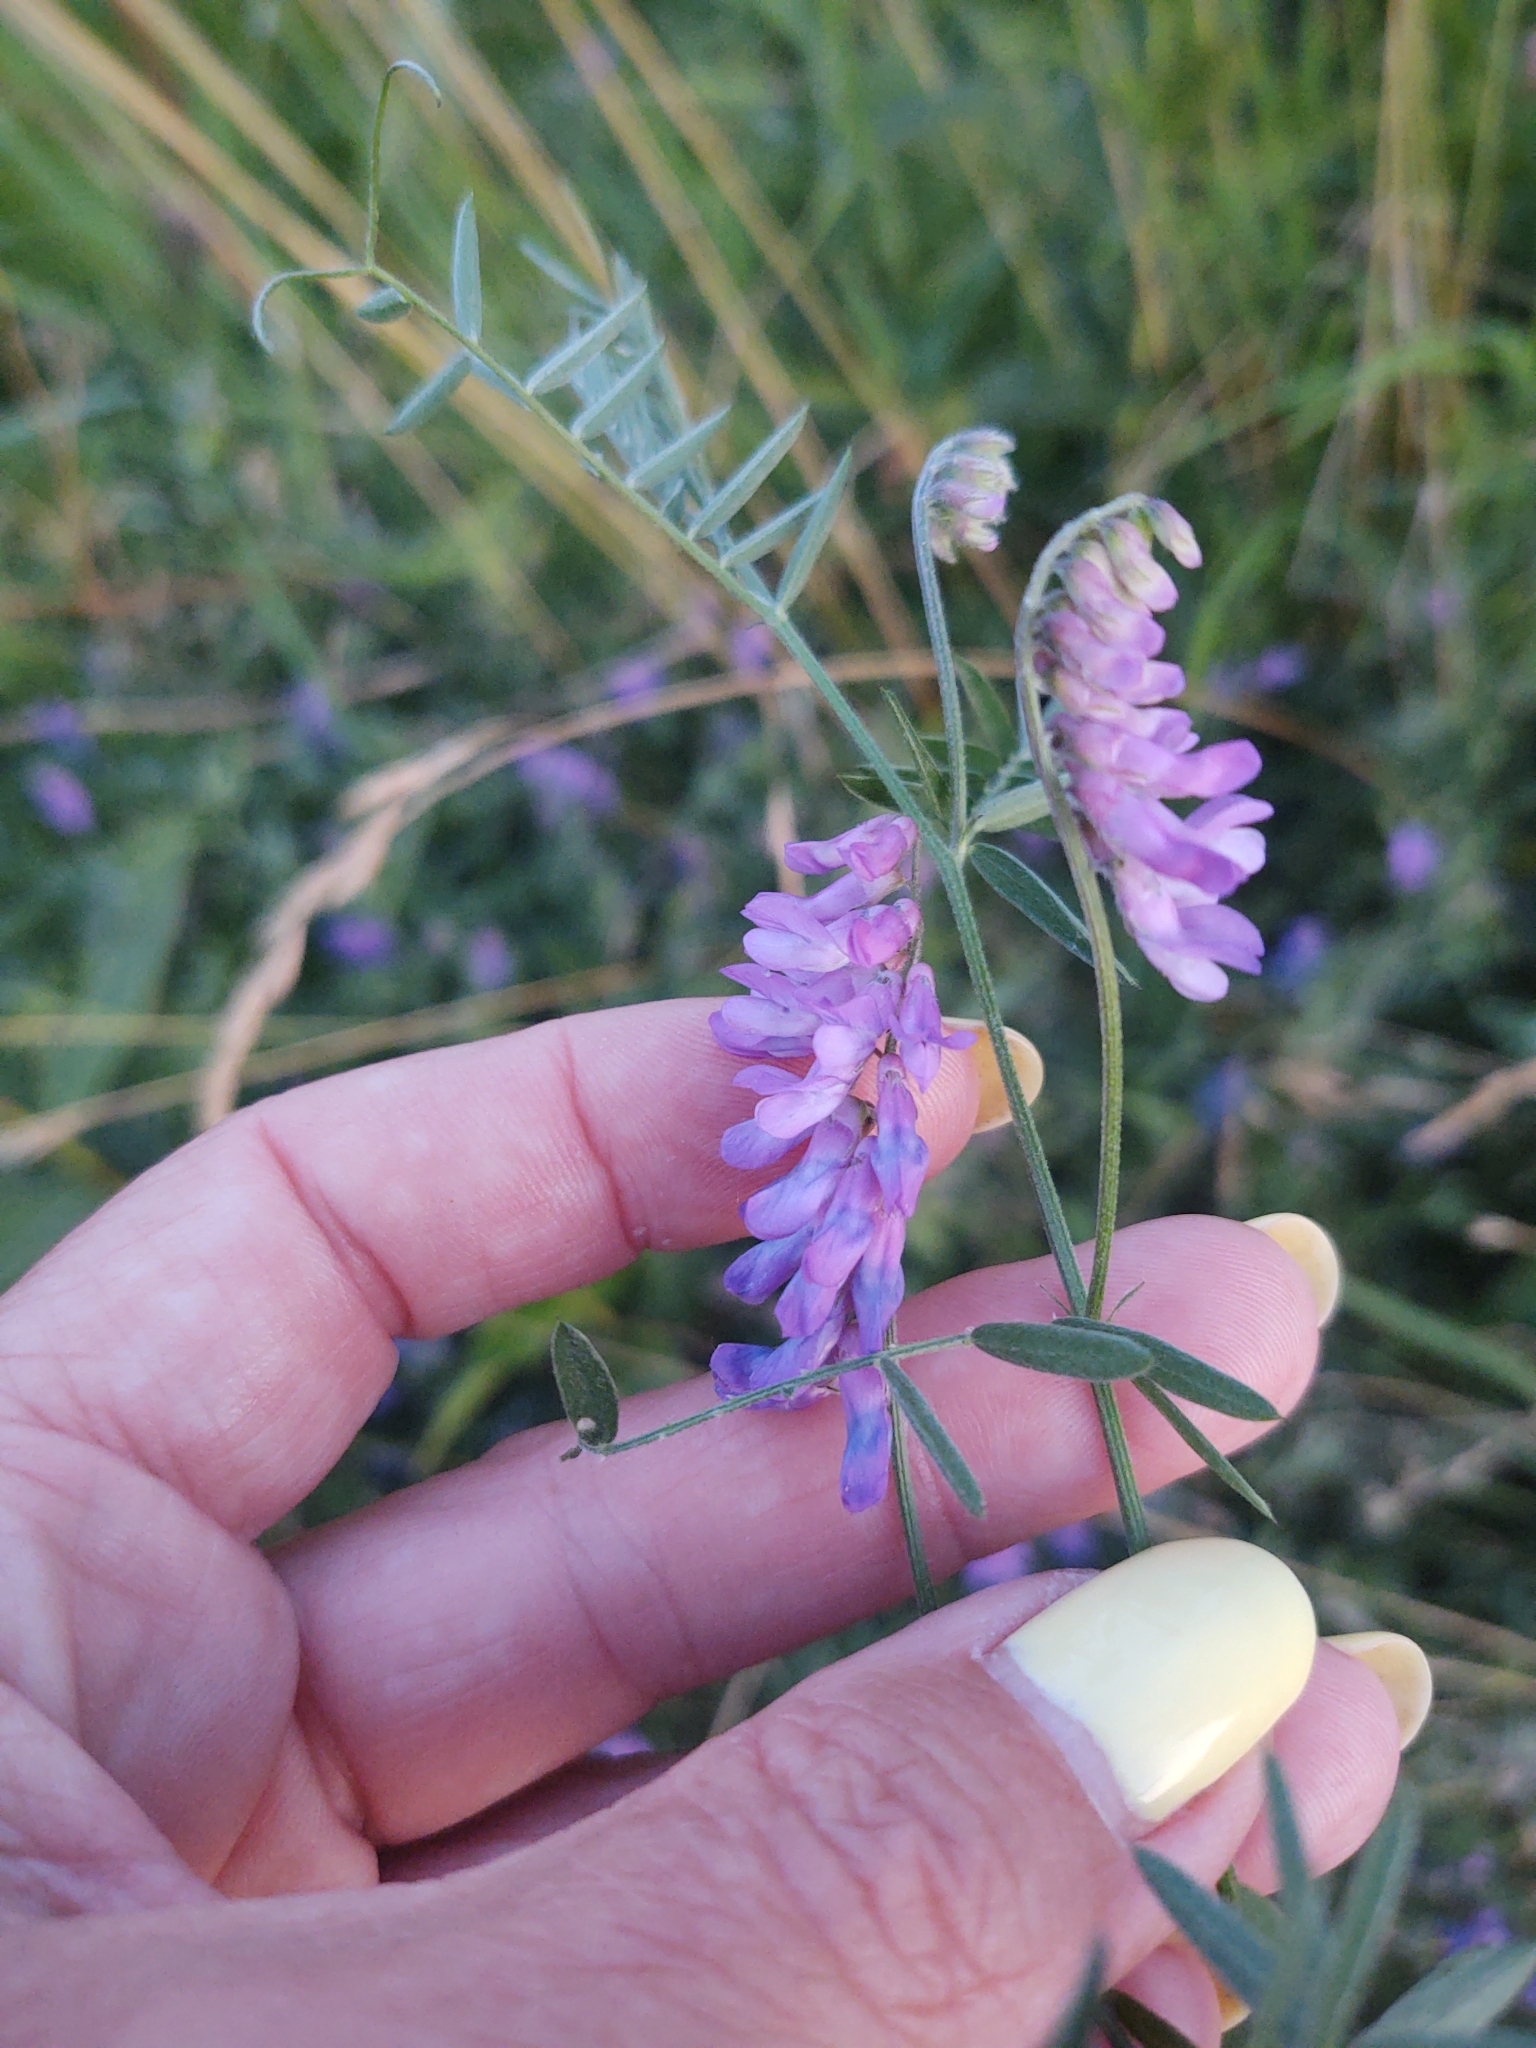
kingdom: Plantae
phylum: Tracheophyta
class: Magnoliopsida
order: Fabales
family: Fabaceae
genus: Vicia
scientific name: Vicia cracca
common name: Bird vetch
